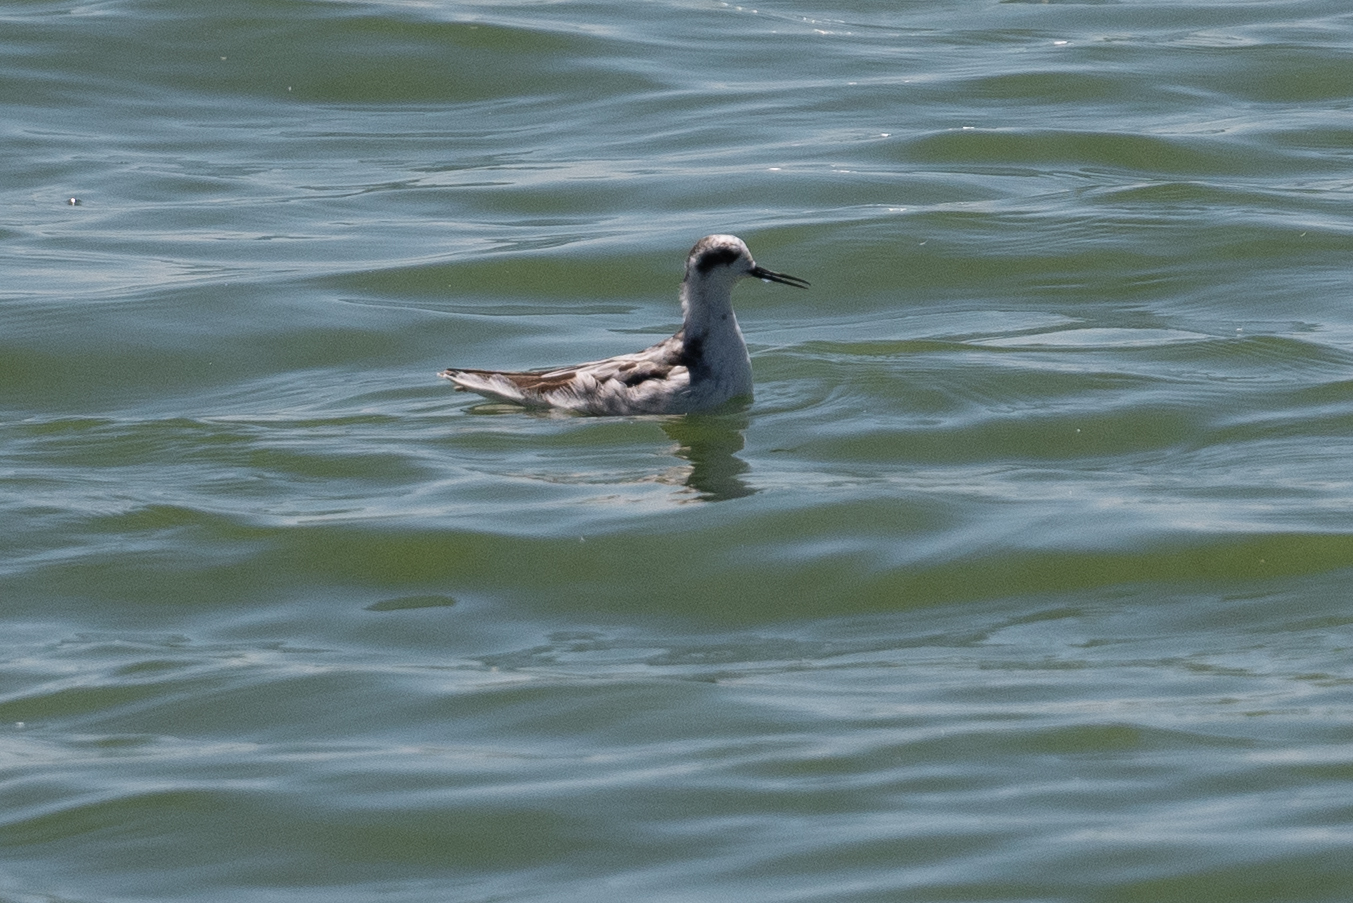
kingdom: Animalia
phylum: Chordata
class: Aves
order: Charadriiformes
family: Scolopacidae
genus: Phalaropus
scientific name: Phalaropus lobatus
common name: Red-necked phalarope
